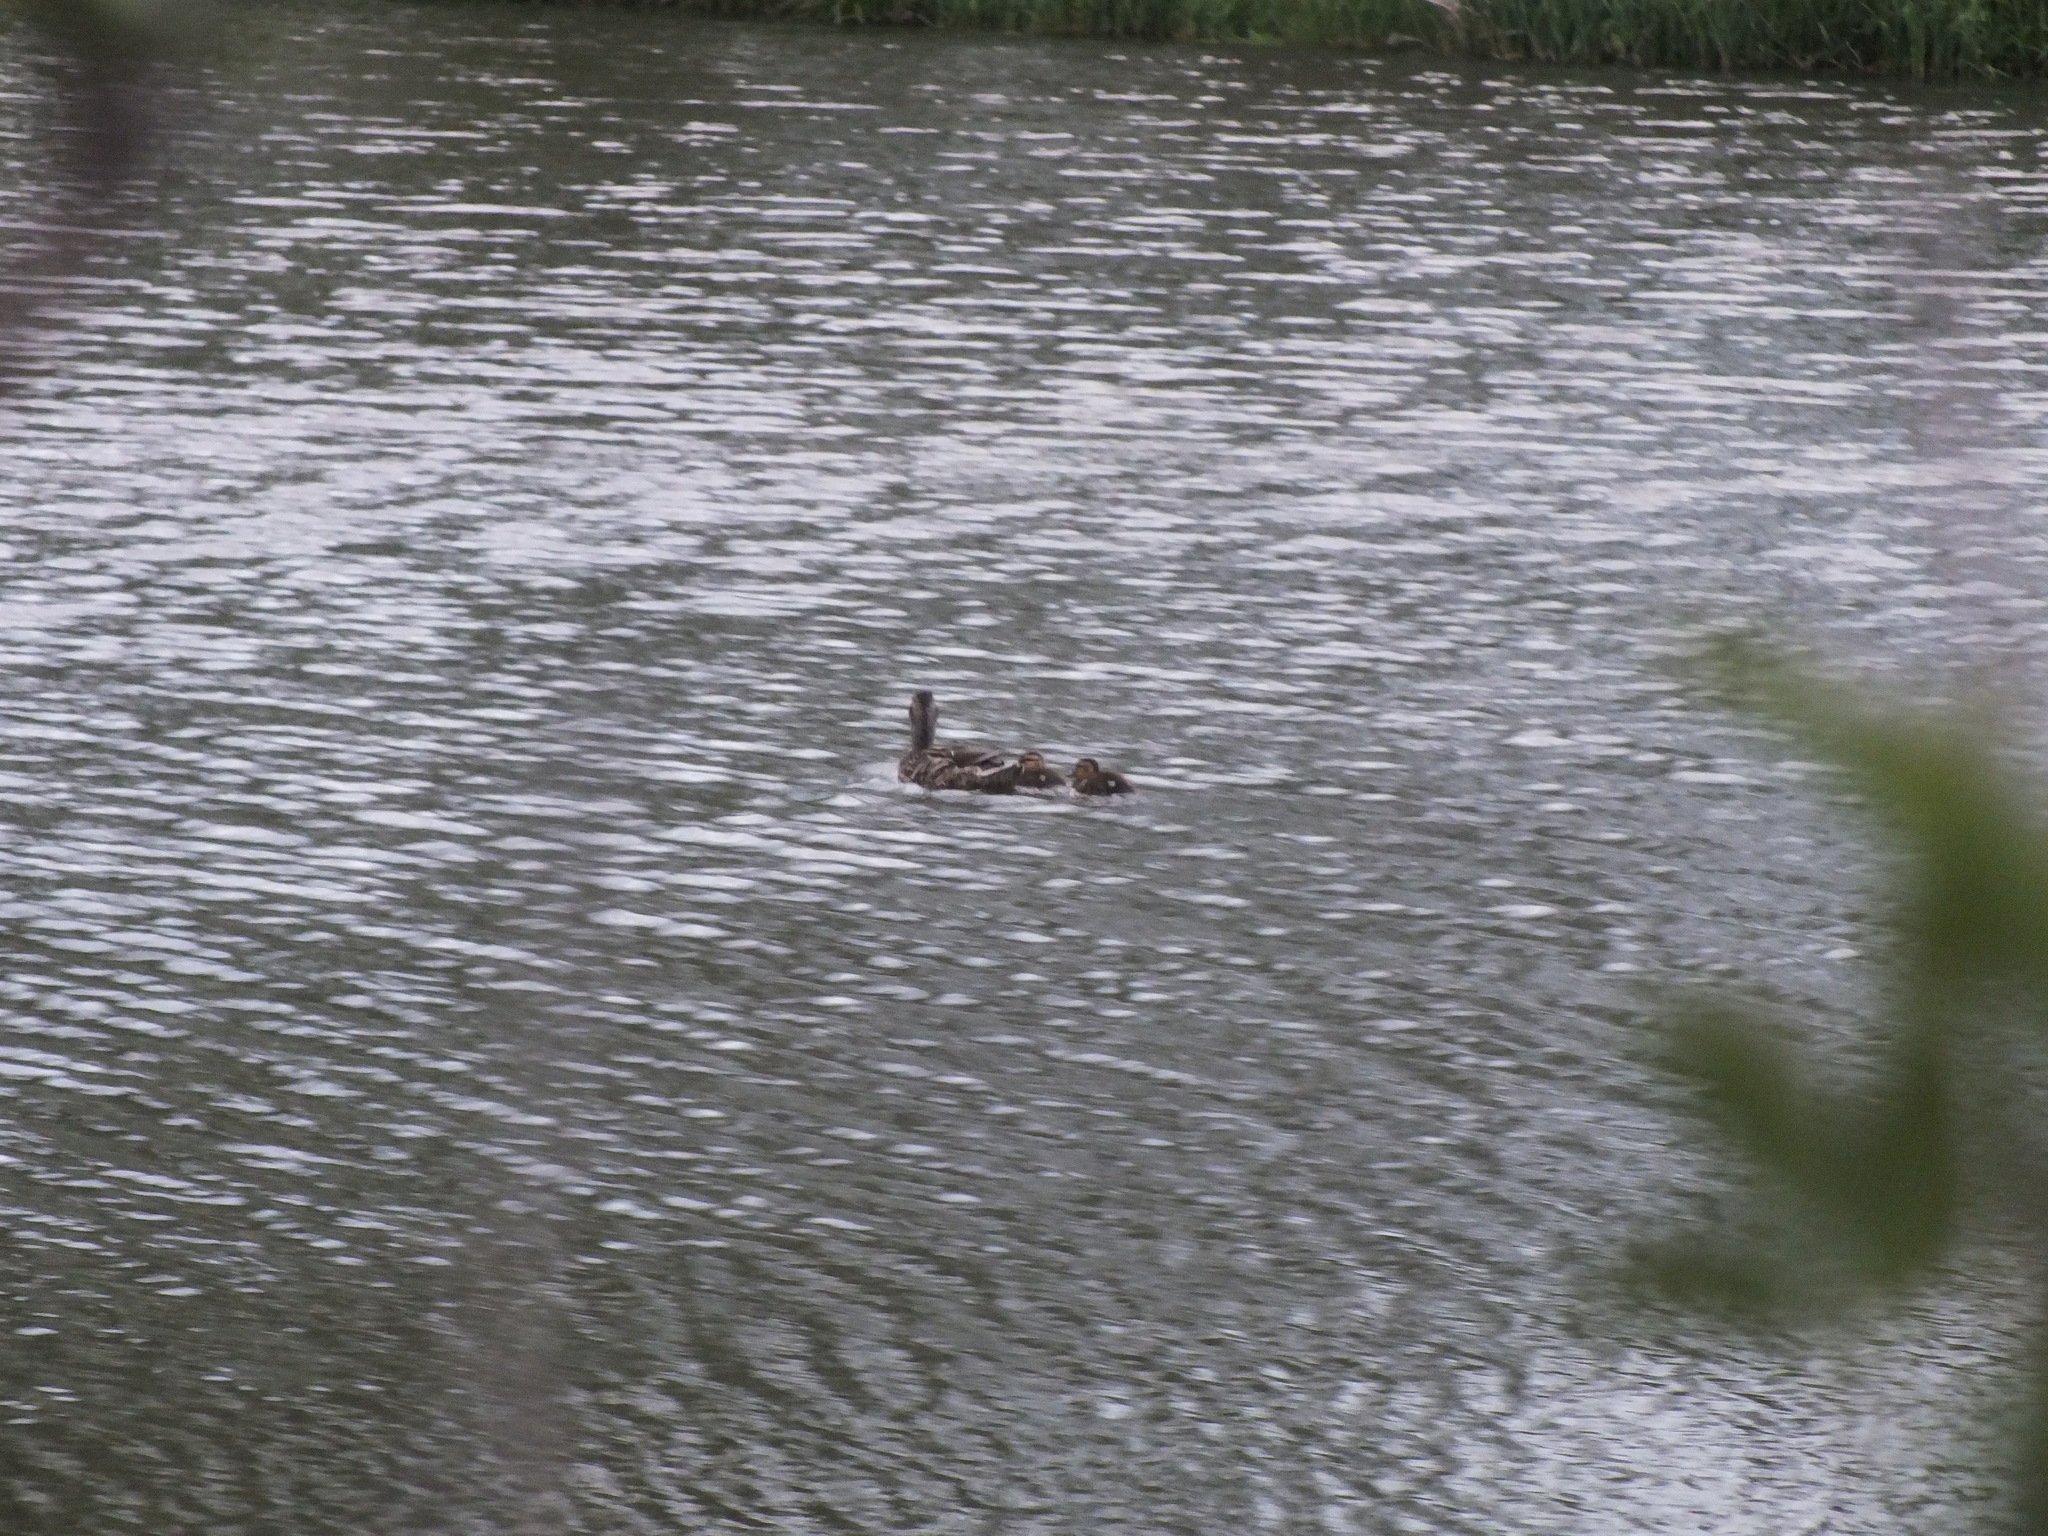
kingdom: Animalia
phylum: Chordata
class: Aves
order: Anseriformes
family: Anatidae
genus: Anas
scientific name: Anas platyrhynchos
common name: Mallard
